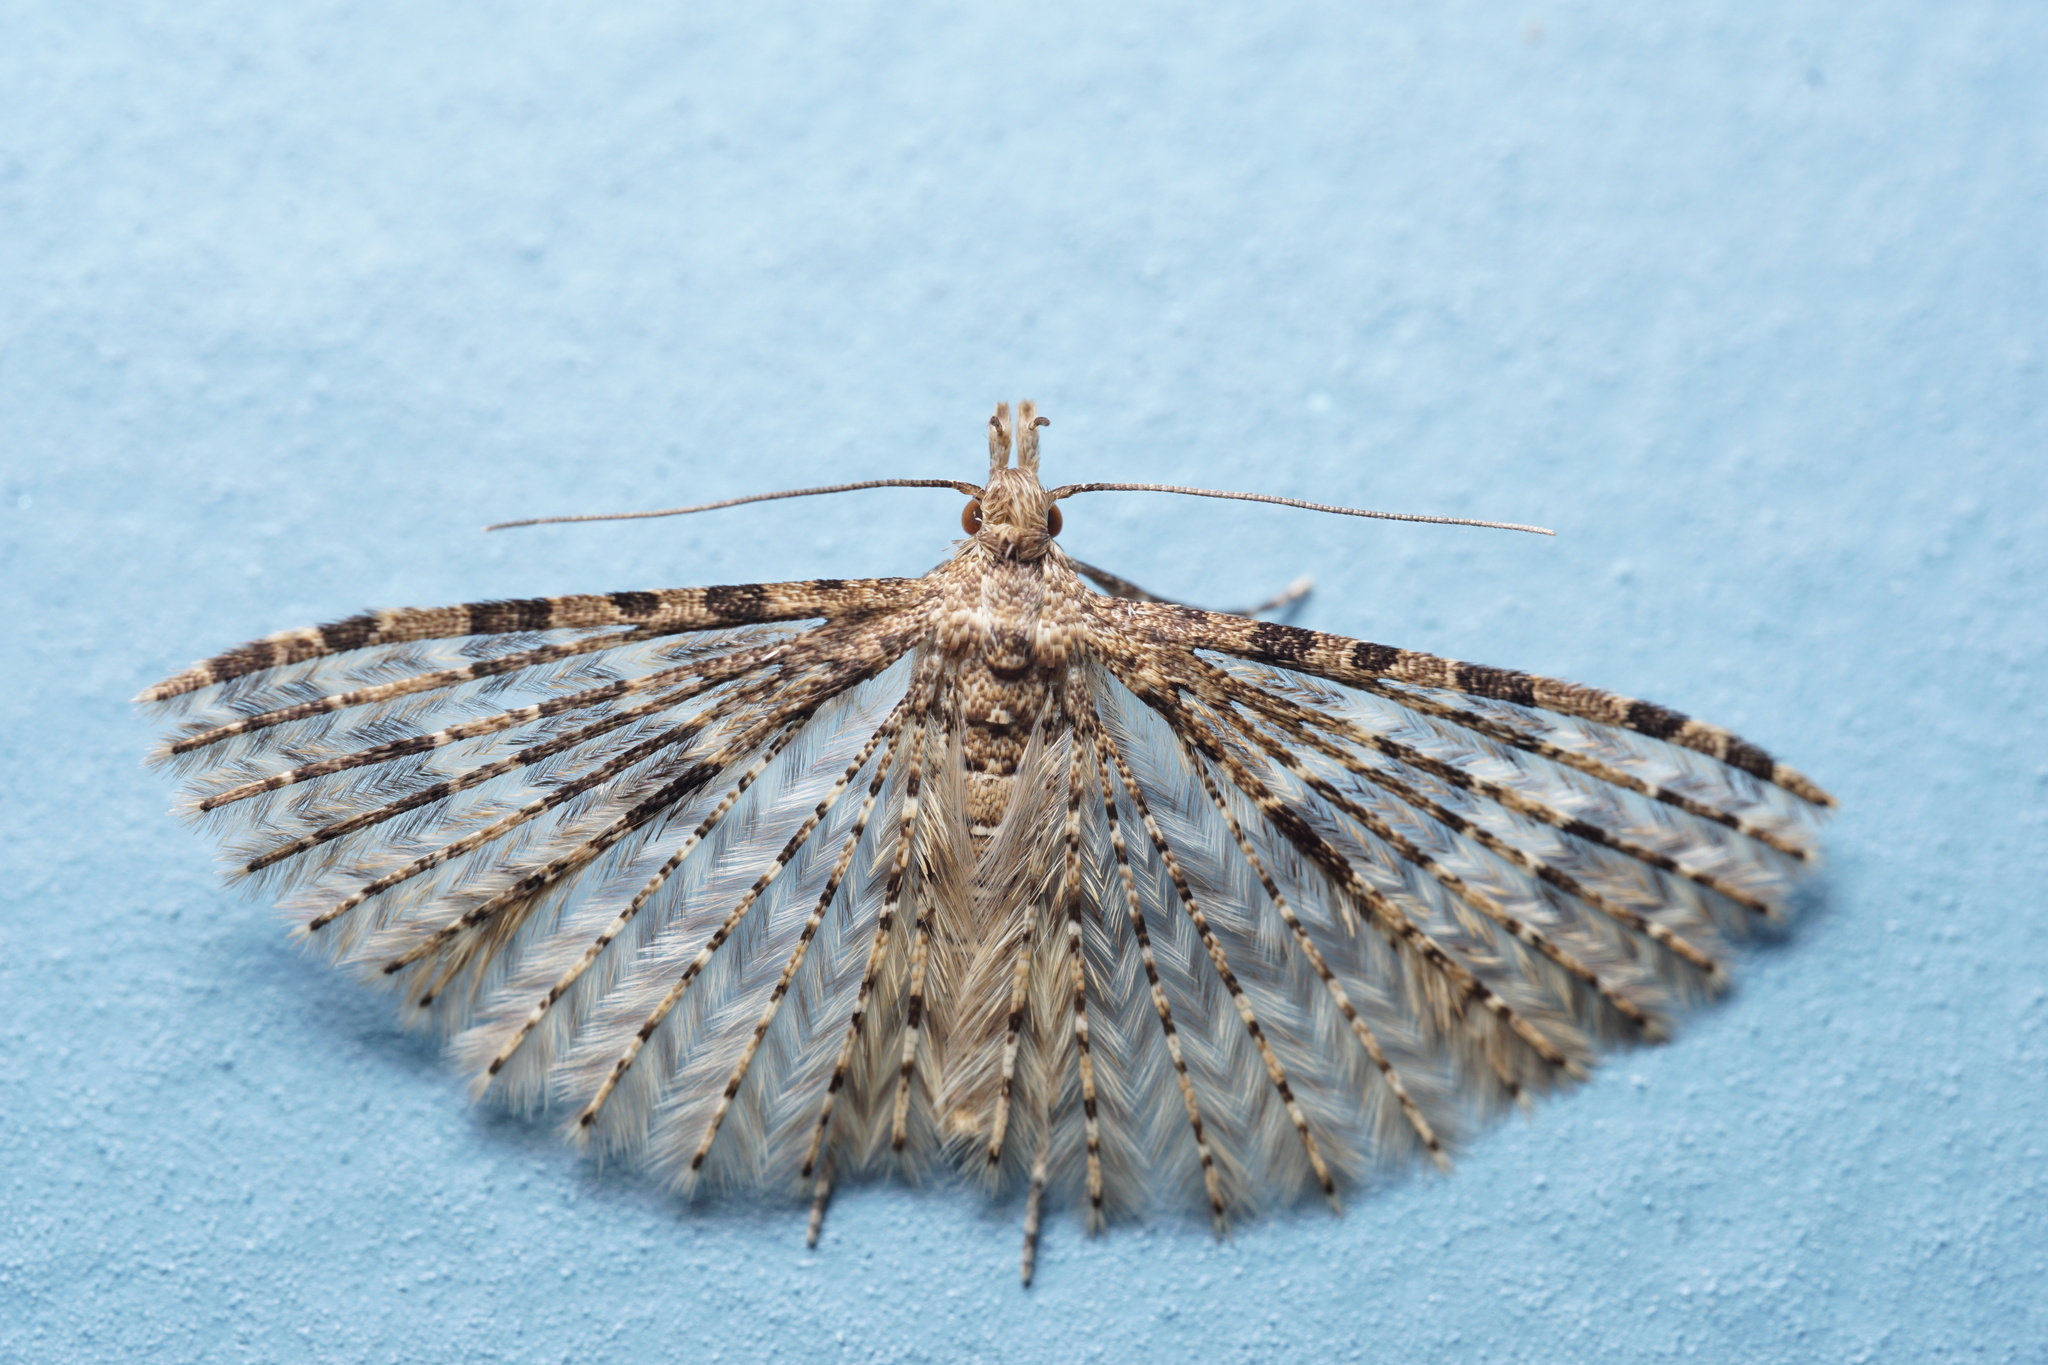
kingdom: Animalia
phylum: Arthropoda
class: Insecta
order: Lepidoptera
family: Alucitidae
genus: Alucita
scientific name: Alucita hexadactyla
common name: Twenty-plume moth
